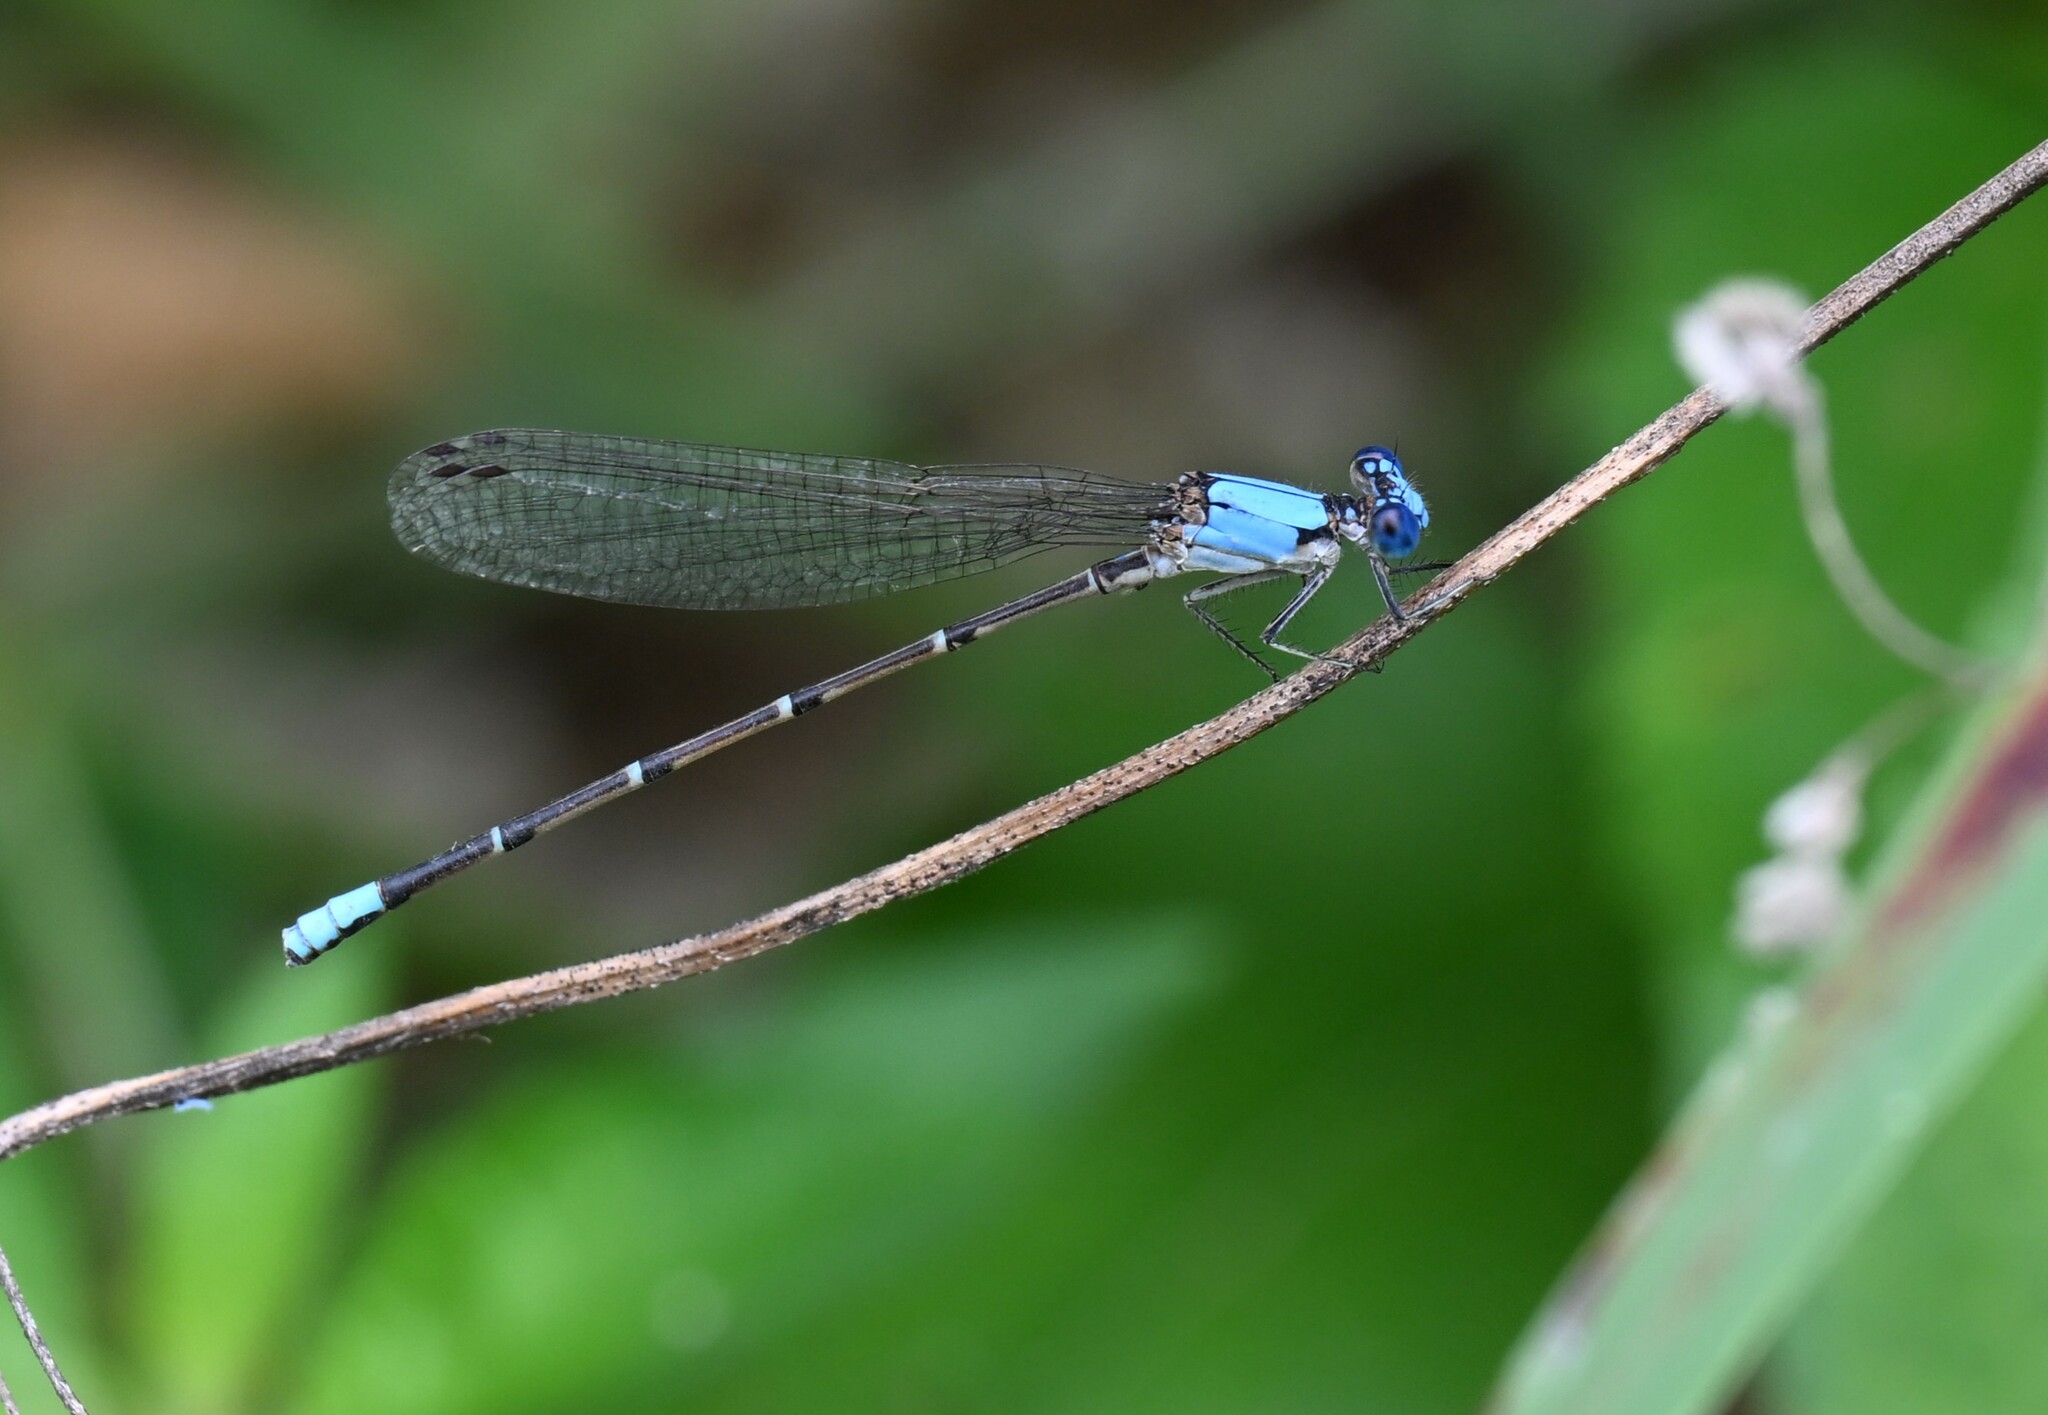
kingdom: Animalia
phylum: Arthropoda
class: Insecta
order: Odonata
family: Coenagrionidae
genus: Argia
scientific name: Argia apicalis
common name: Blue-fronted dancer
